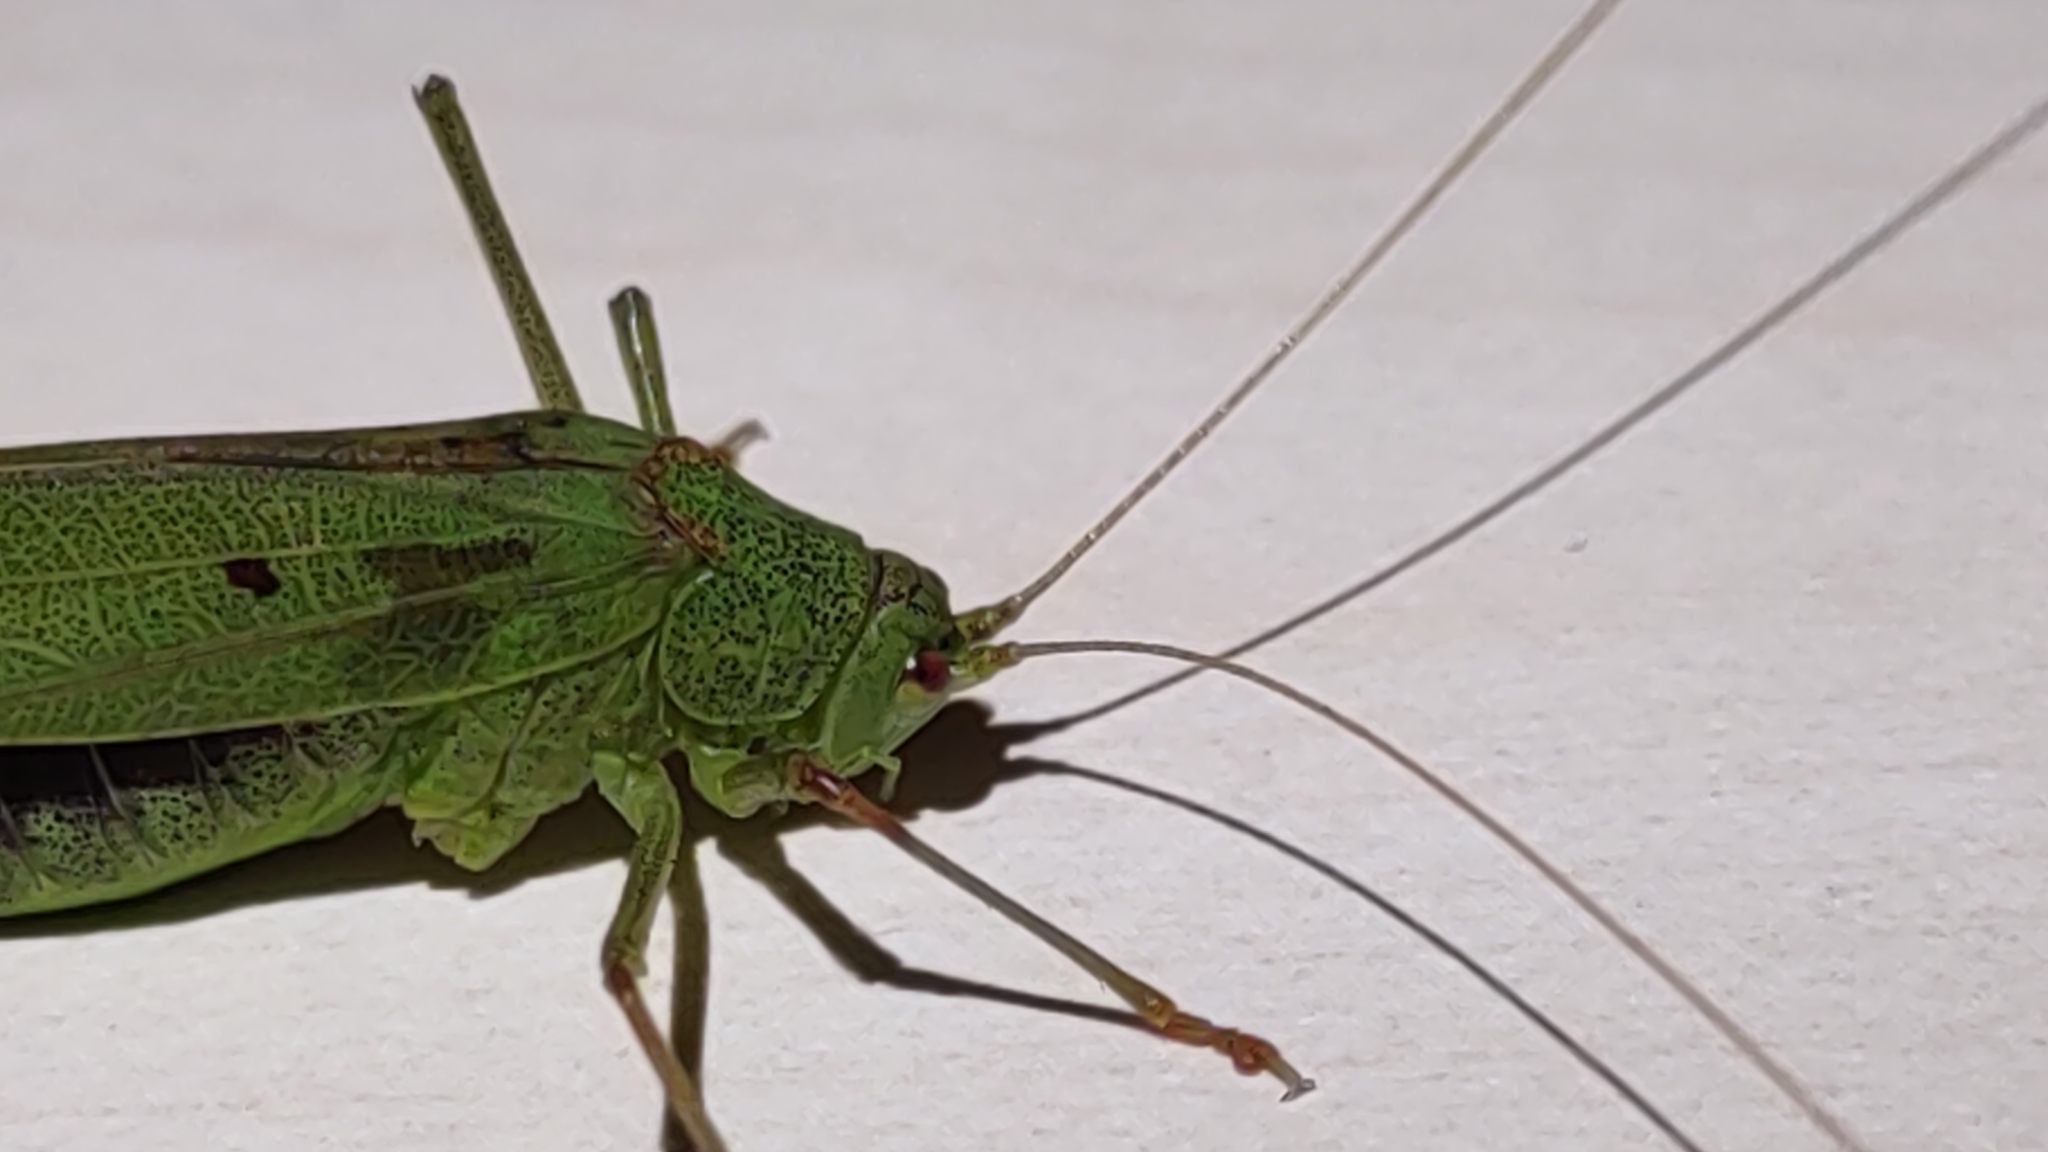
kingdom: Animalia
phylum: Arthropoda
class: Insecta
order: Orthoptera
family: Tettigoniidae
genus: Phaneroptera
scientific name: Phaneroptera falcata
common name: Sickle-bearing bush-cricket
